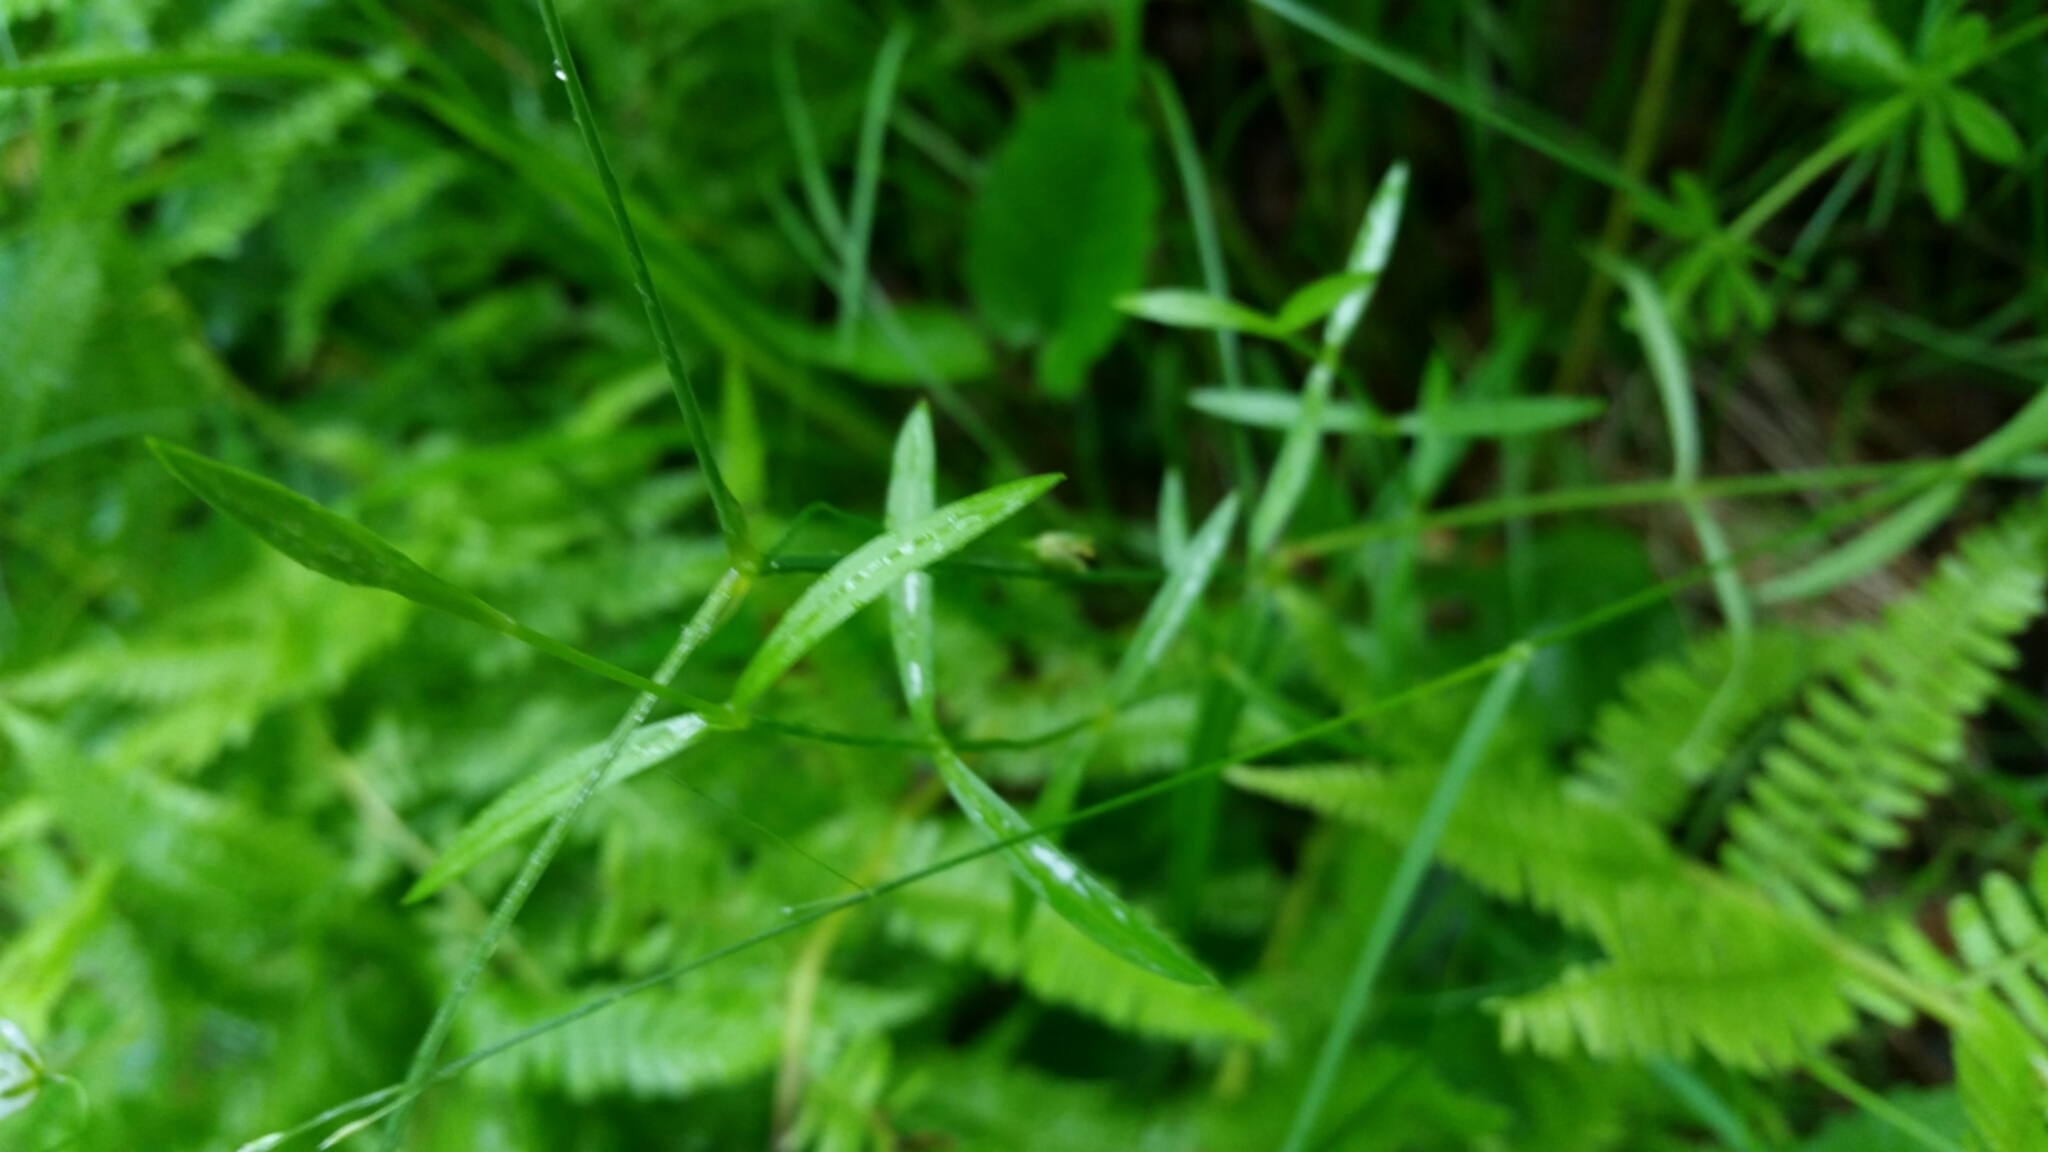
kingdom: Plantae
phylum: Tracheophyta
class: Magnoliopsida
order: Caryophyllales
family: Caryophyllaceae
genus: Stellaria
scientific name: Stellaria graminea
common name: Grass-like starwort
